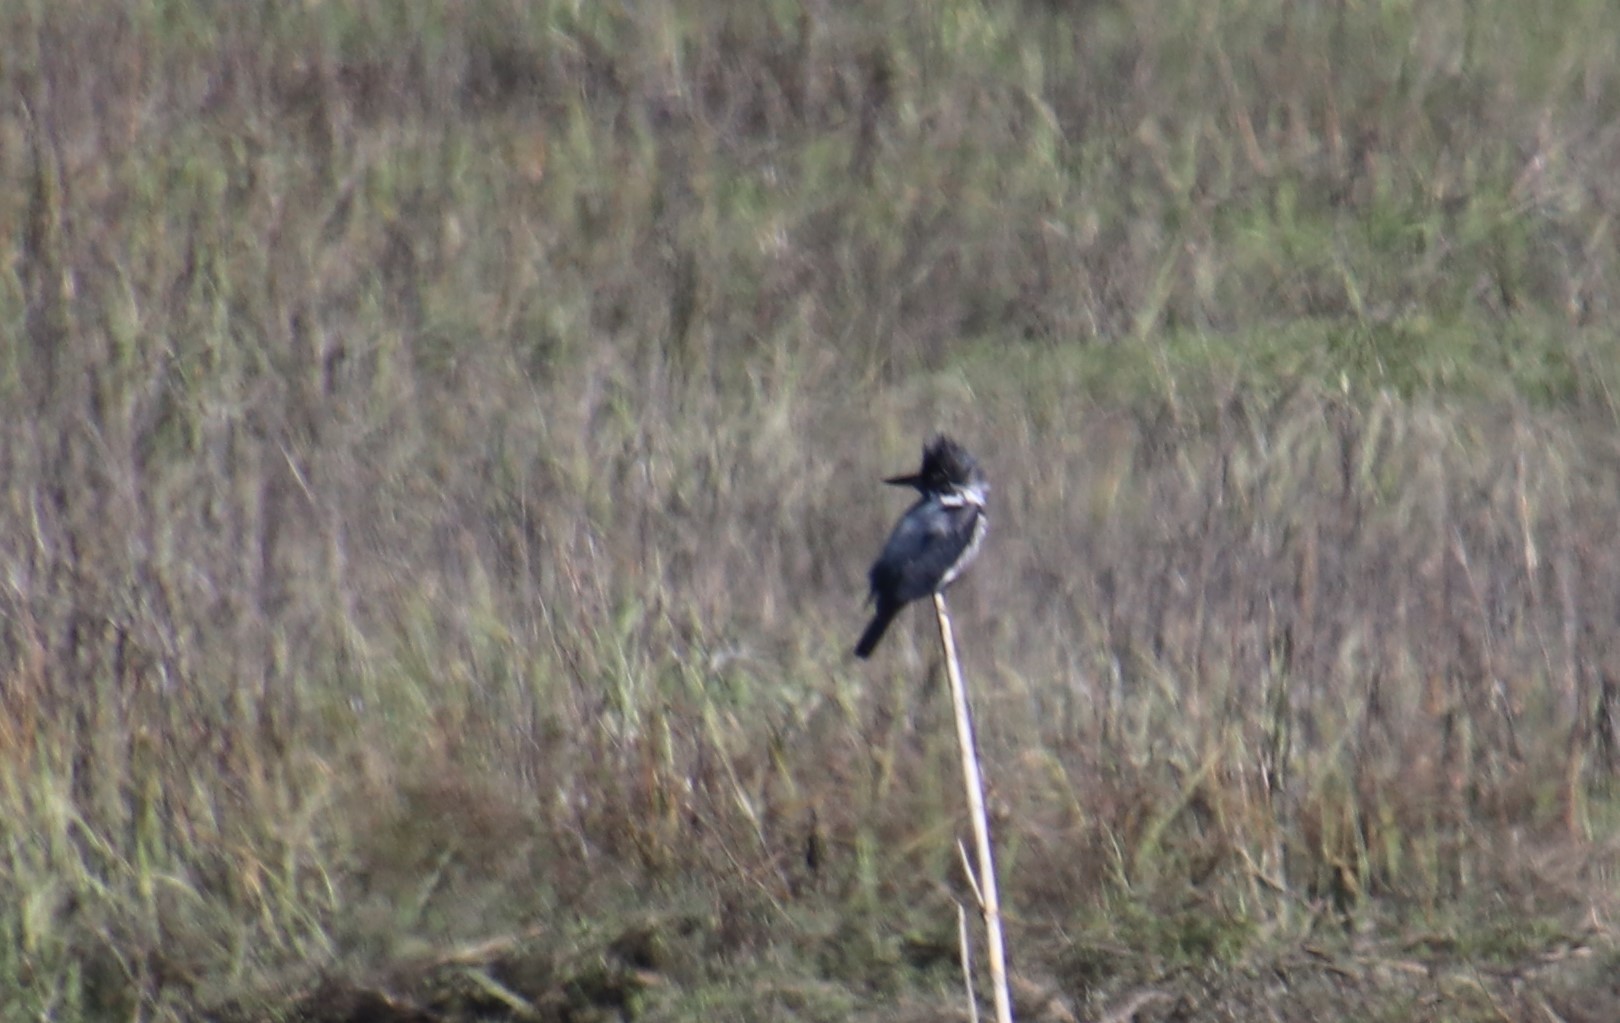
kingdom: Animalia
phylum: Chordata
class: Aves
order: Coraciiformes
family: Alcedinidae
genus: Megaceryle
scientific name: Megaceryle alcyon
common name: Belted kingfisher
